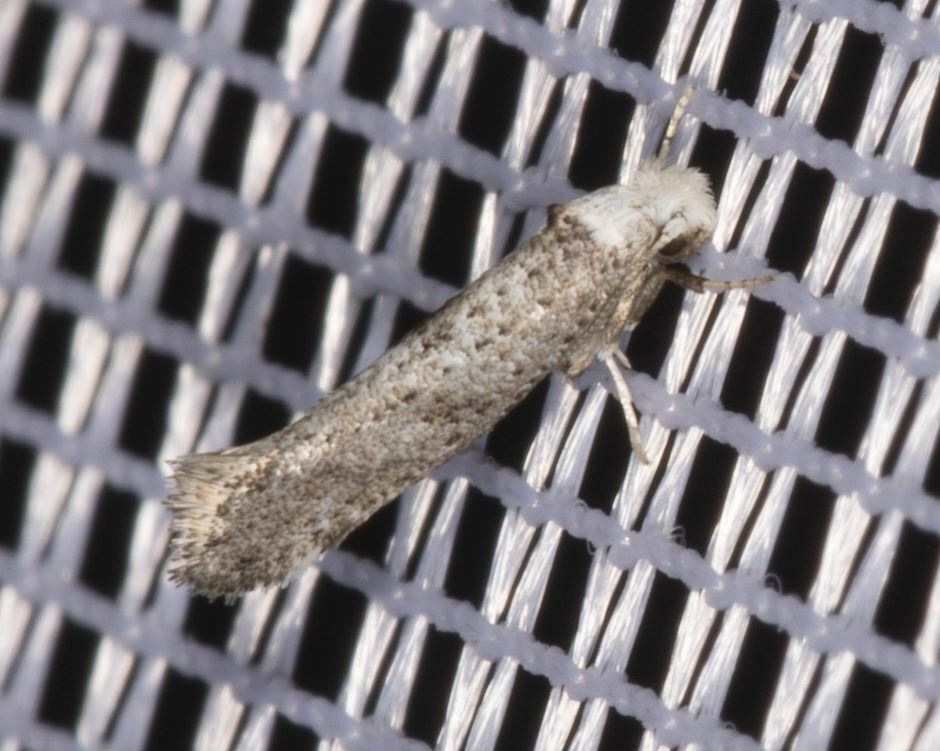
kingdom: Animalia
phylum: Arthropoda
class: Insecta
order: Lepidoptera
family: Yponomeutidae
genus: Paraswammerdamia
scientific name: Paraswammerdamia albicapitella
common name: White-headed ermel
